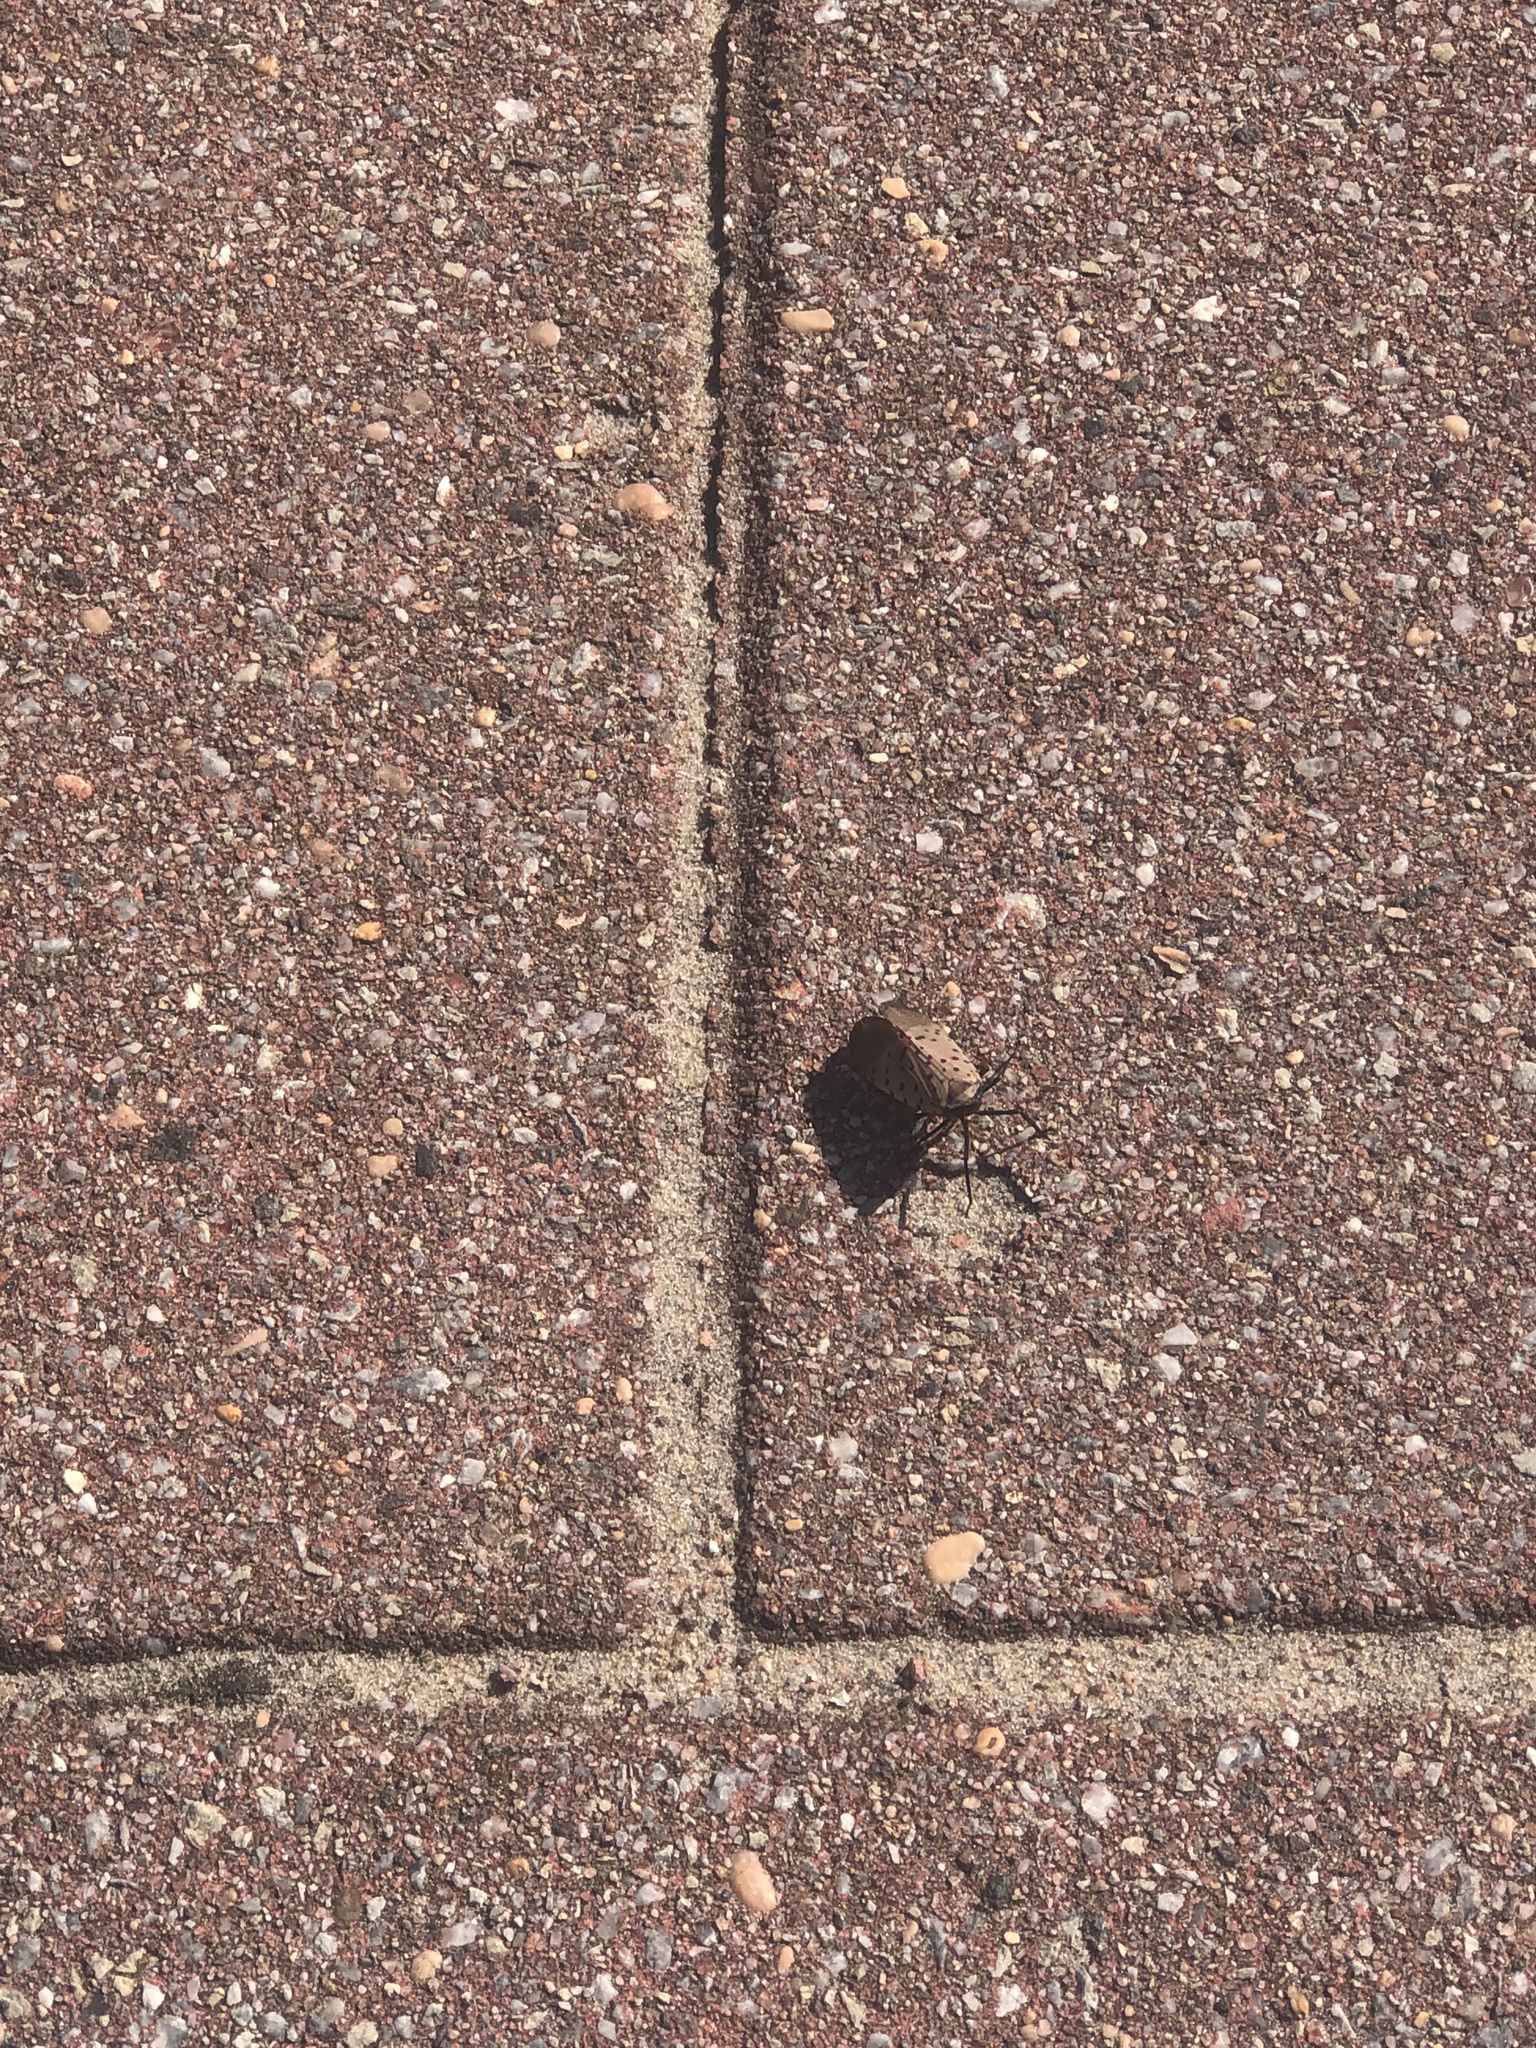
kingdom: Animalia
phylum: Arthropoda
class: Insecta
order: Hemiptera
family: Fulgoridae
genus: Lycorma
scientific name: Lycorma delicatula
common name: Spotted lanternfly
